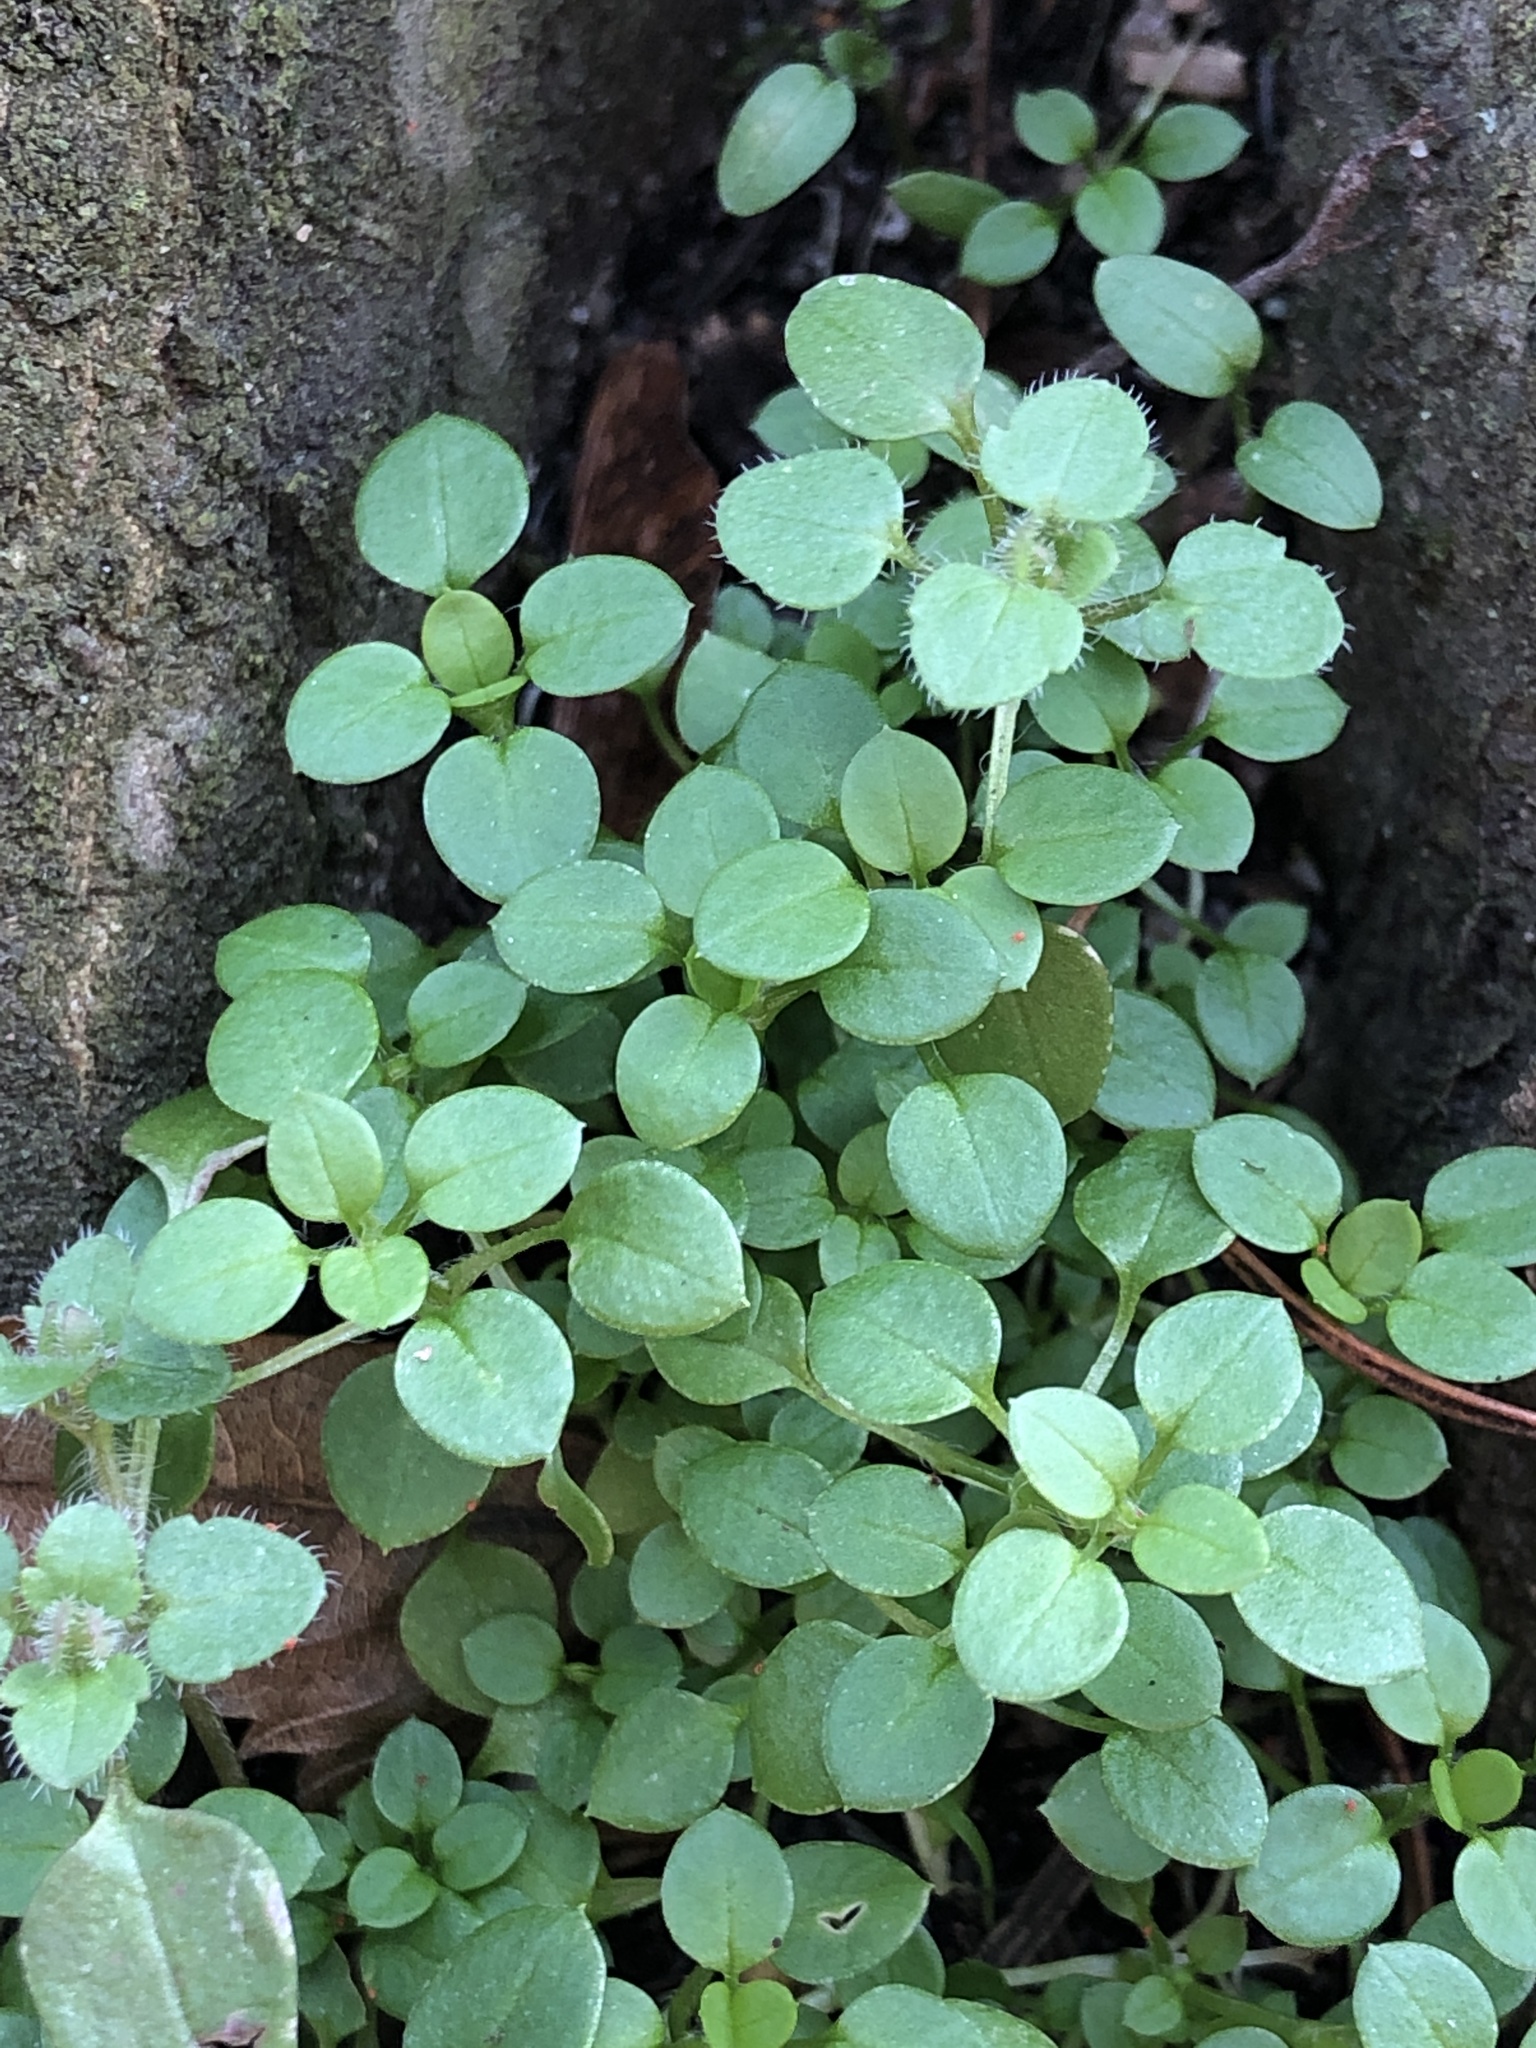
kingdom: Plantae
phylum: Tracheophyta
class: Magnoliopsida
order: Caryophyllales
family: Caryophyllaceae
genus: Stellaria
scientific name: Stellaria media
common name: Common chickweed
